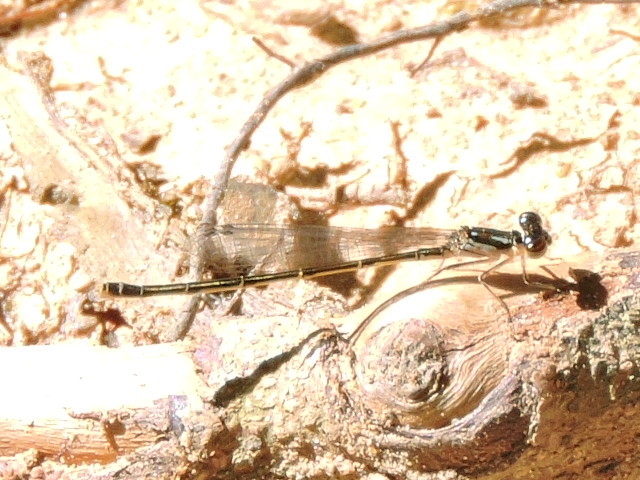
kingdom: Animalia
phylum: Arthropoda
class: Insecta
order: Odonata
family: Coenagrionidae
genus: Ischnura
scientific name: Ischnura posita
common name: Fragile forktail
